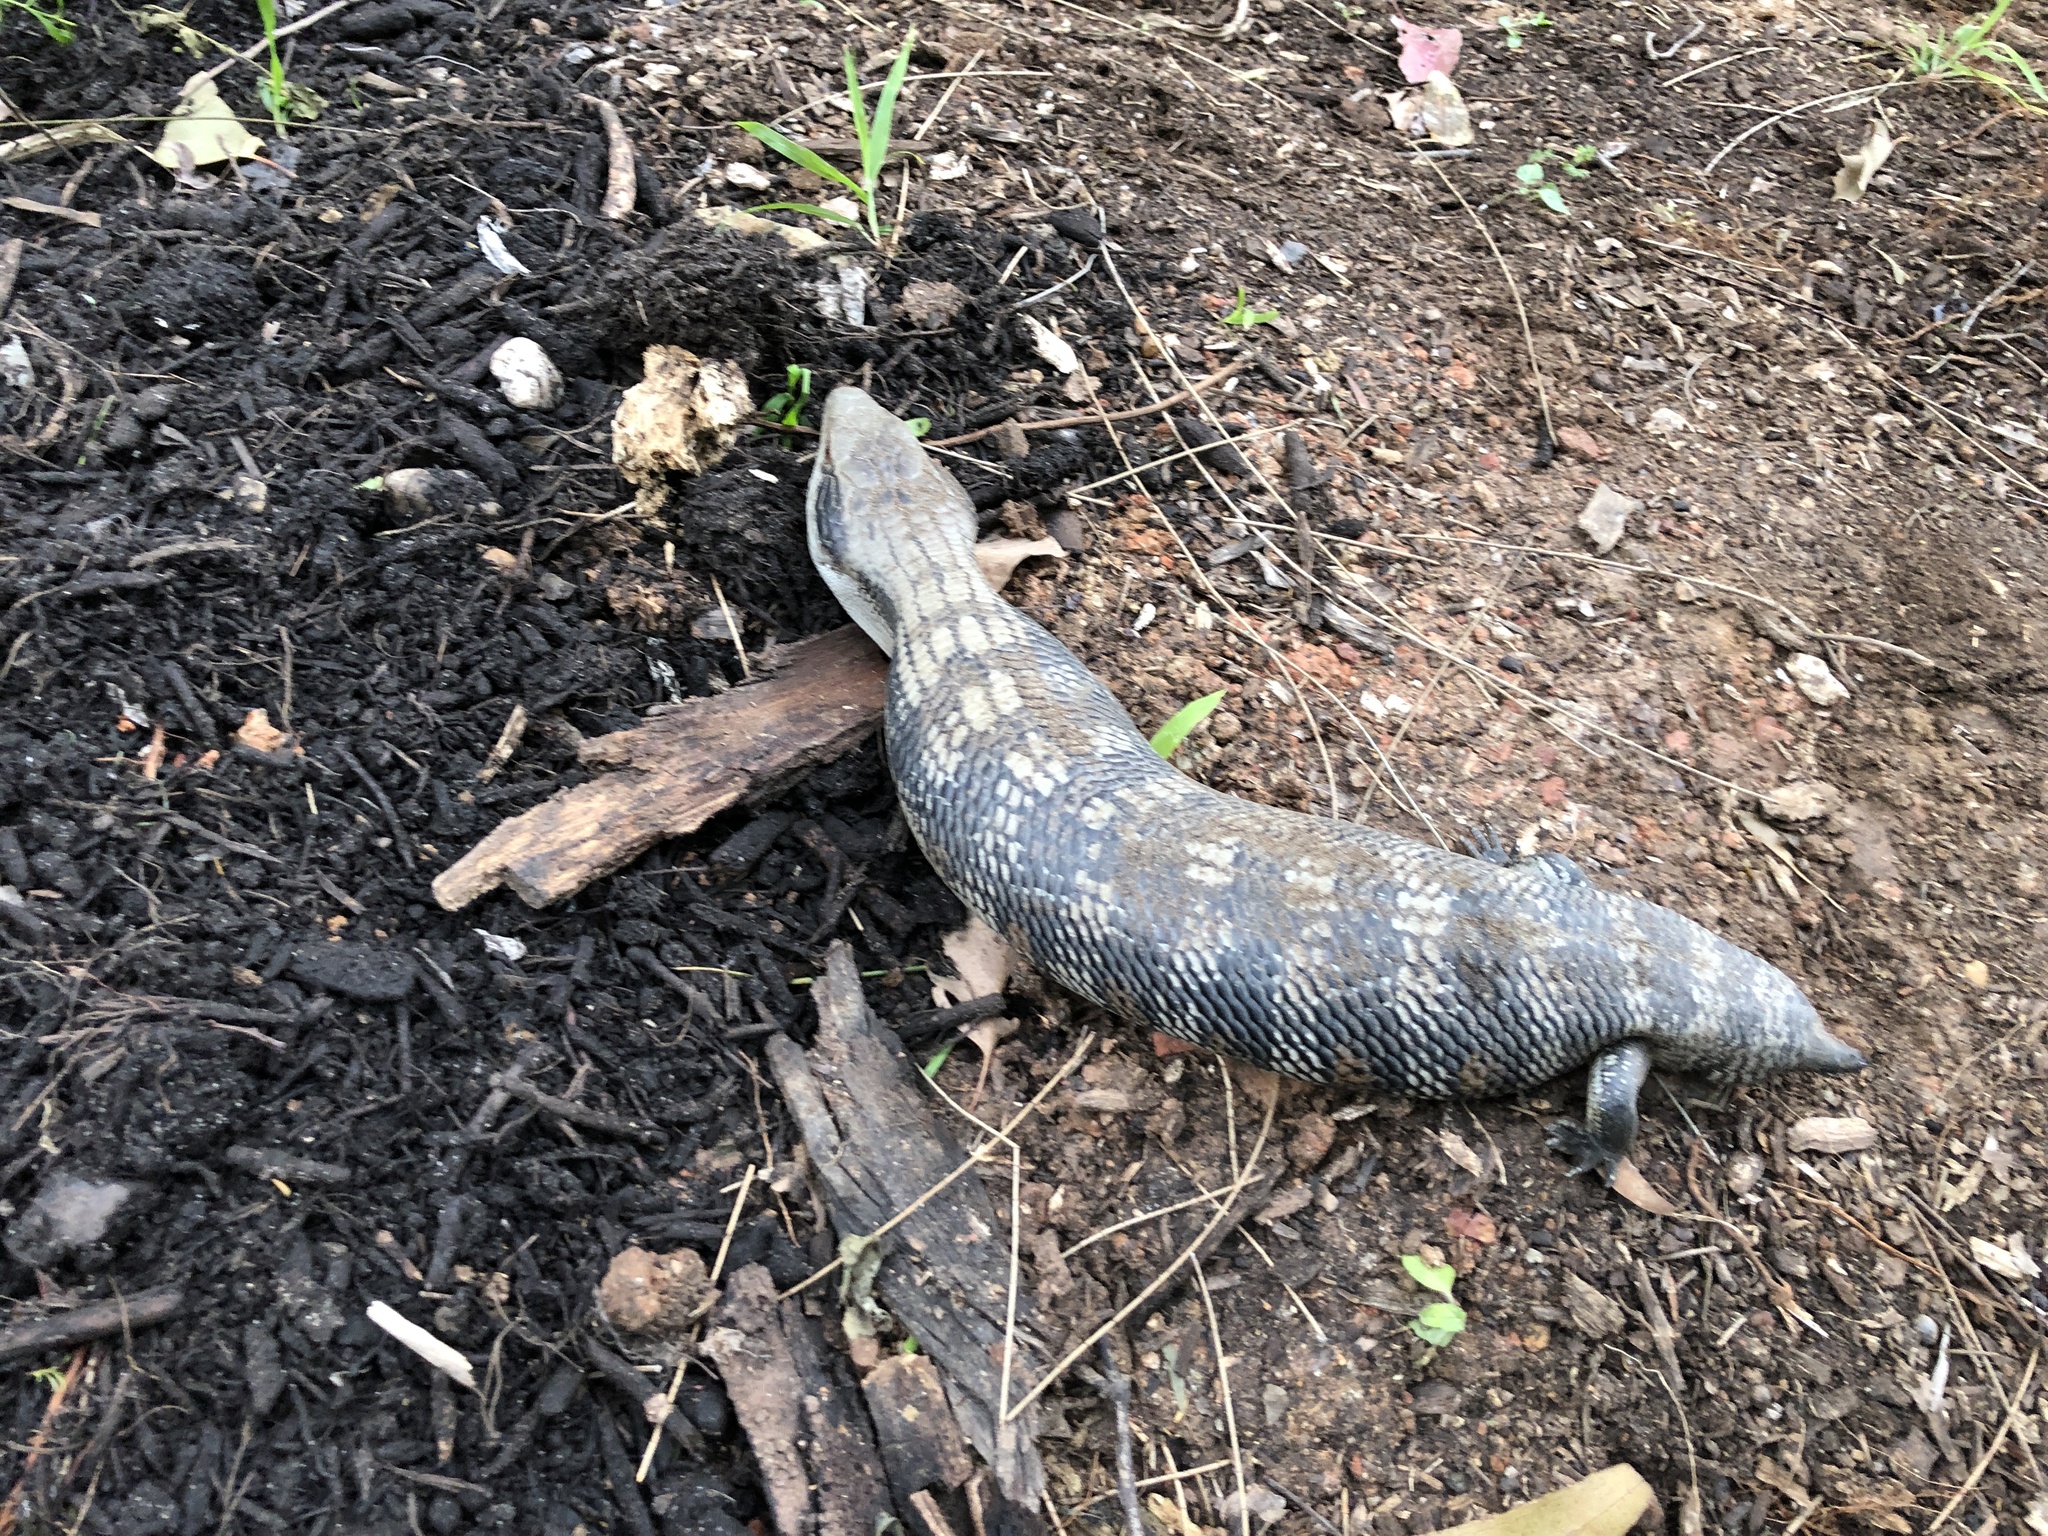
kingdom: Animalia
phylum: Chordata
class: Squamata
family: Scincidae
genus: Tiliqua
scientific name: Tiliqua scincoides
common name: Common bluetongue
